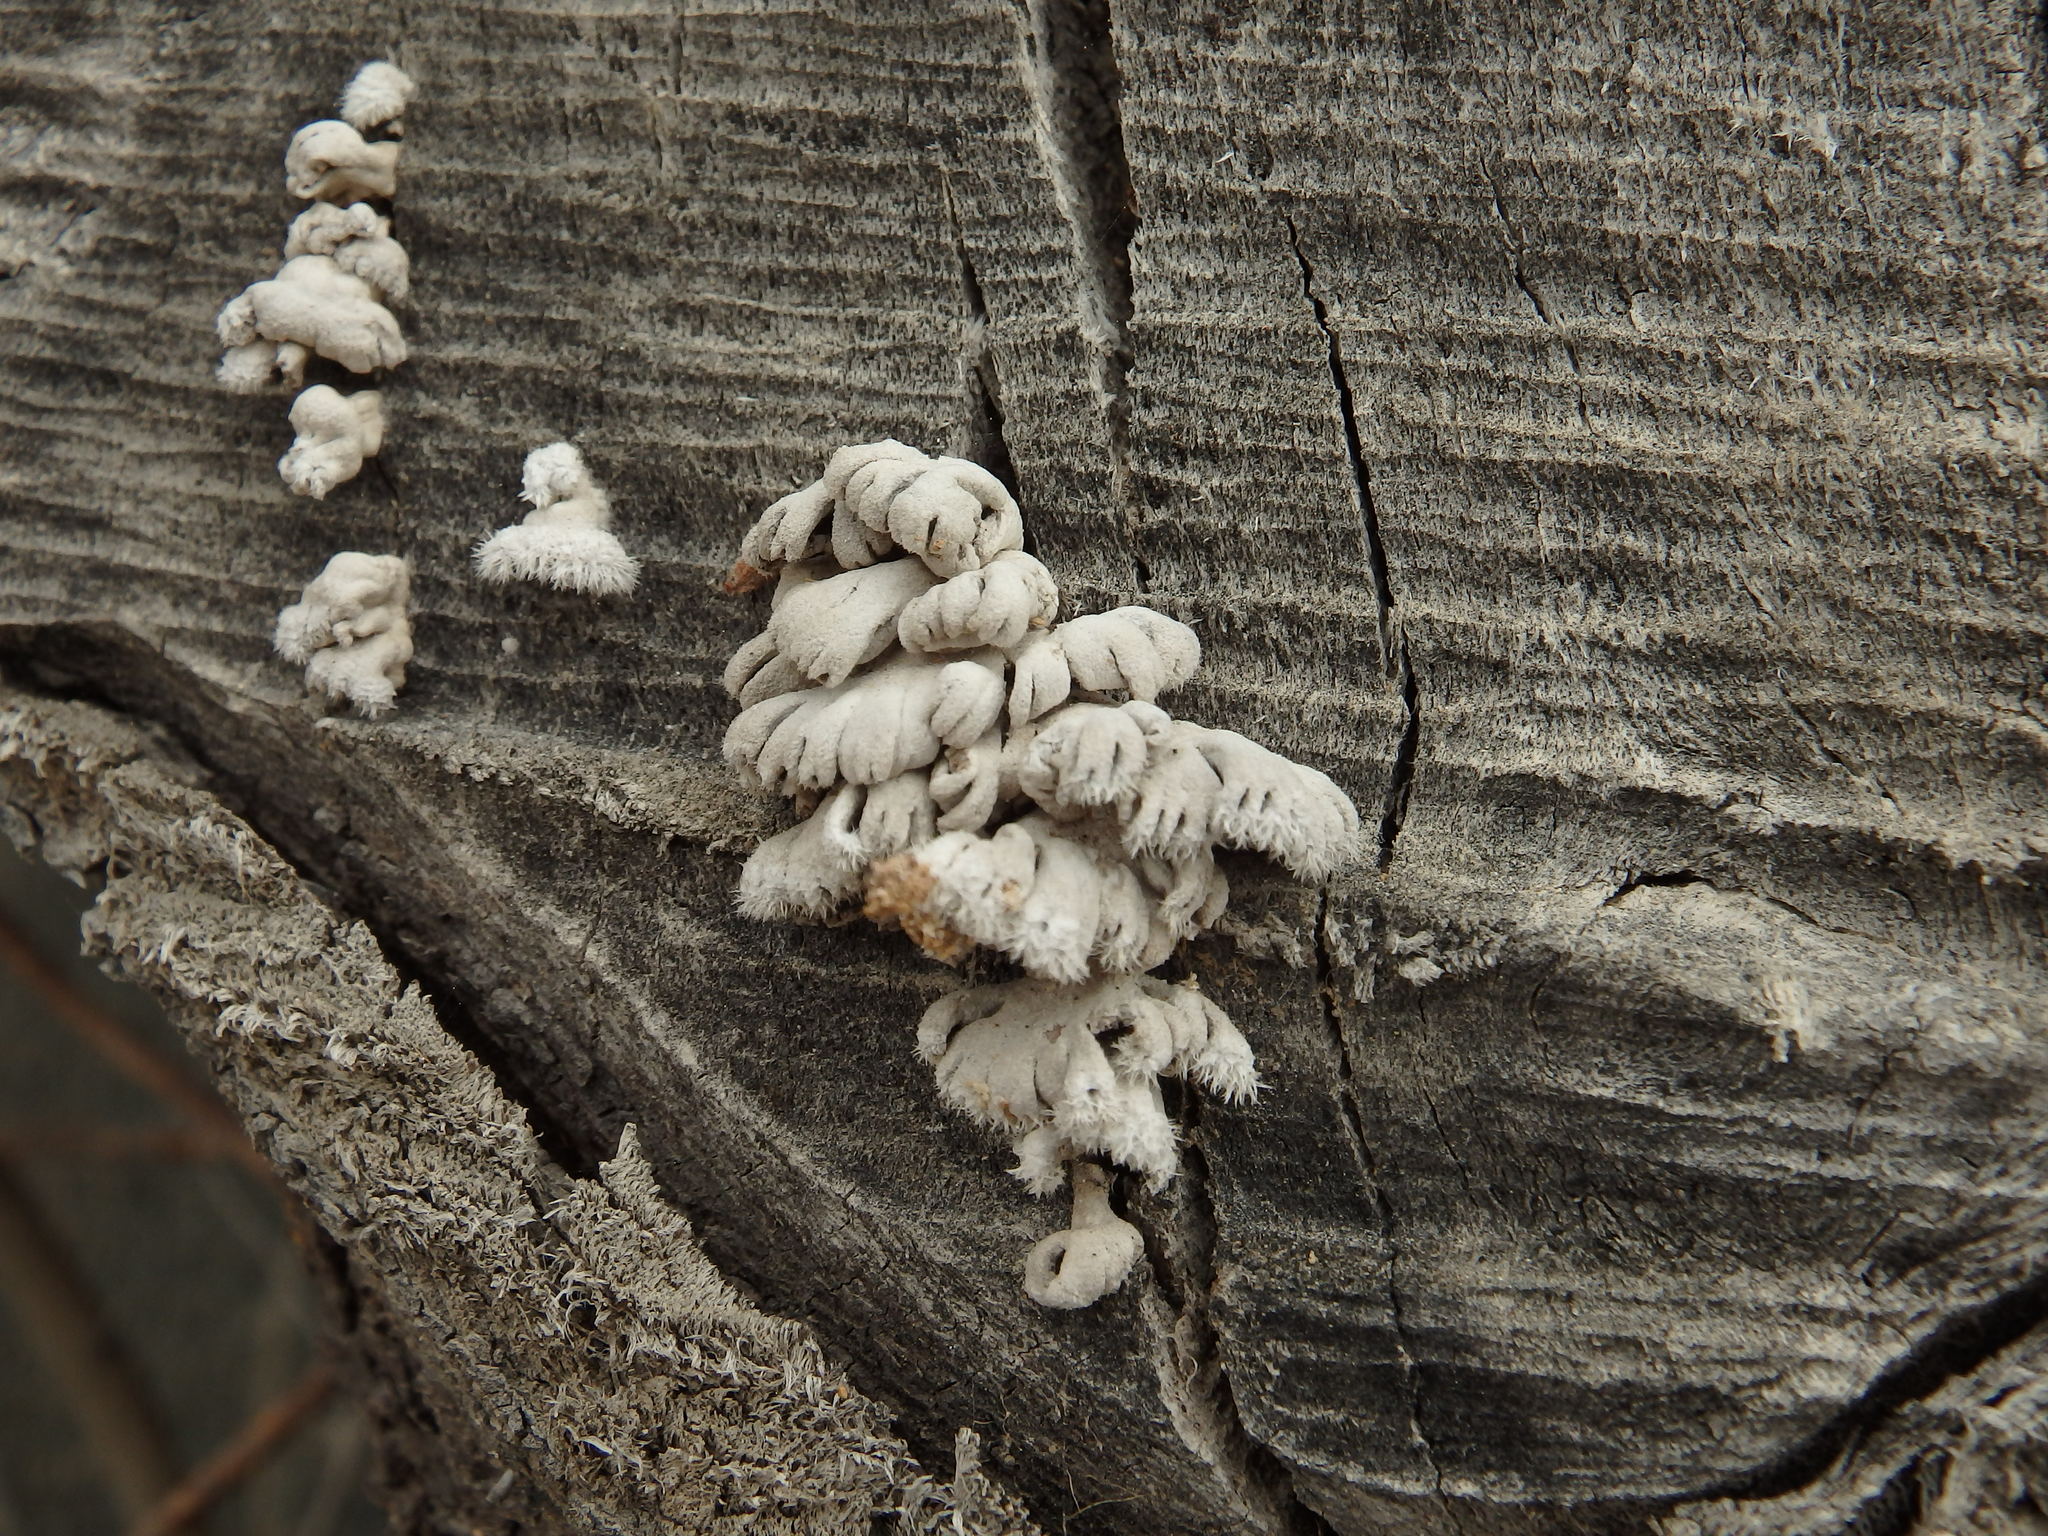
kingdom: Fungi
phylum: Basidiomycota
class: Agaricomycetes
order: Agaricales
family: Schizophyllaceae
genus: Schizophyllum
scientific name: Schizophyllum commune
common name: Common porecrust
